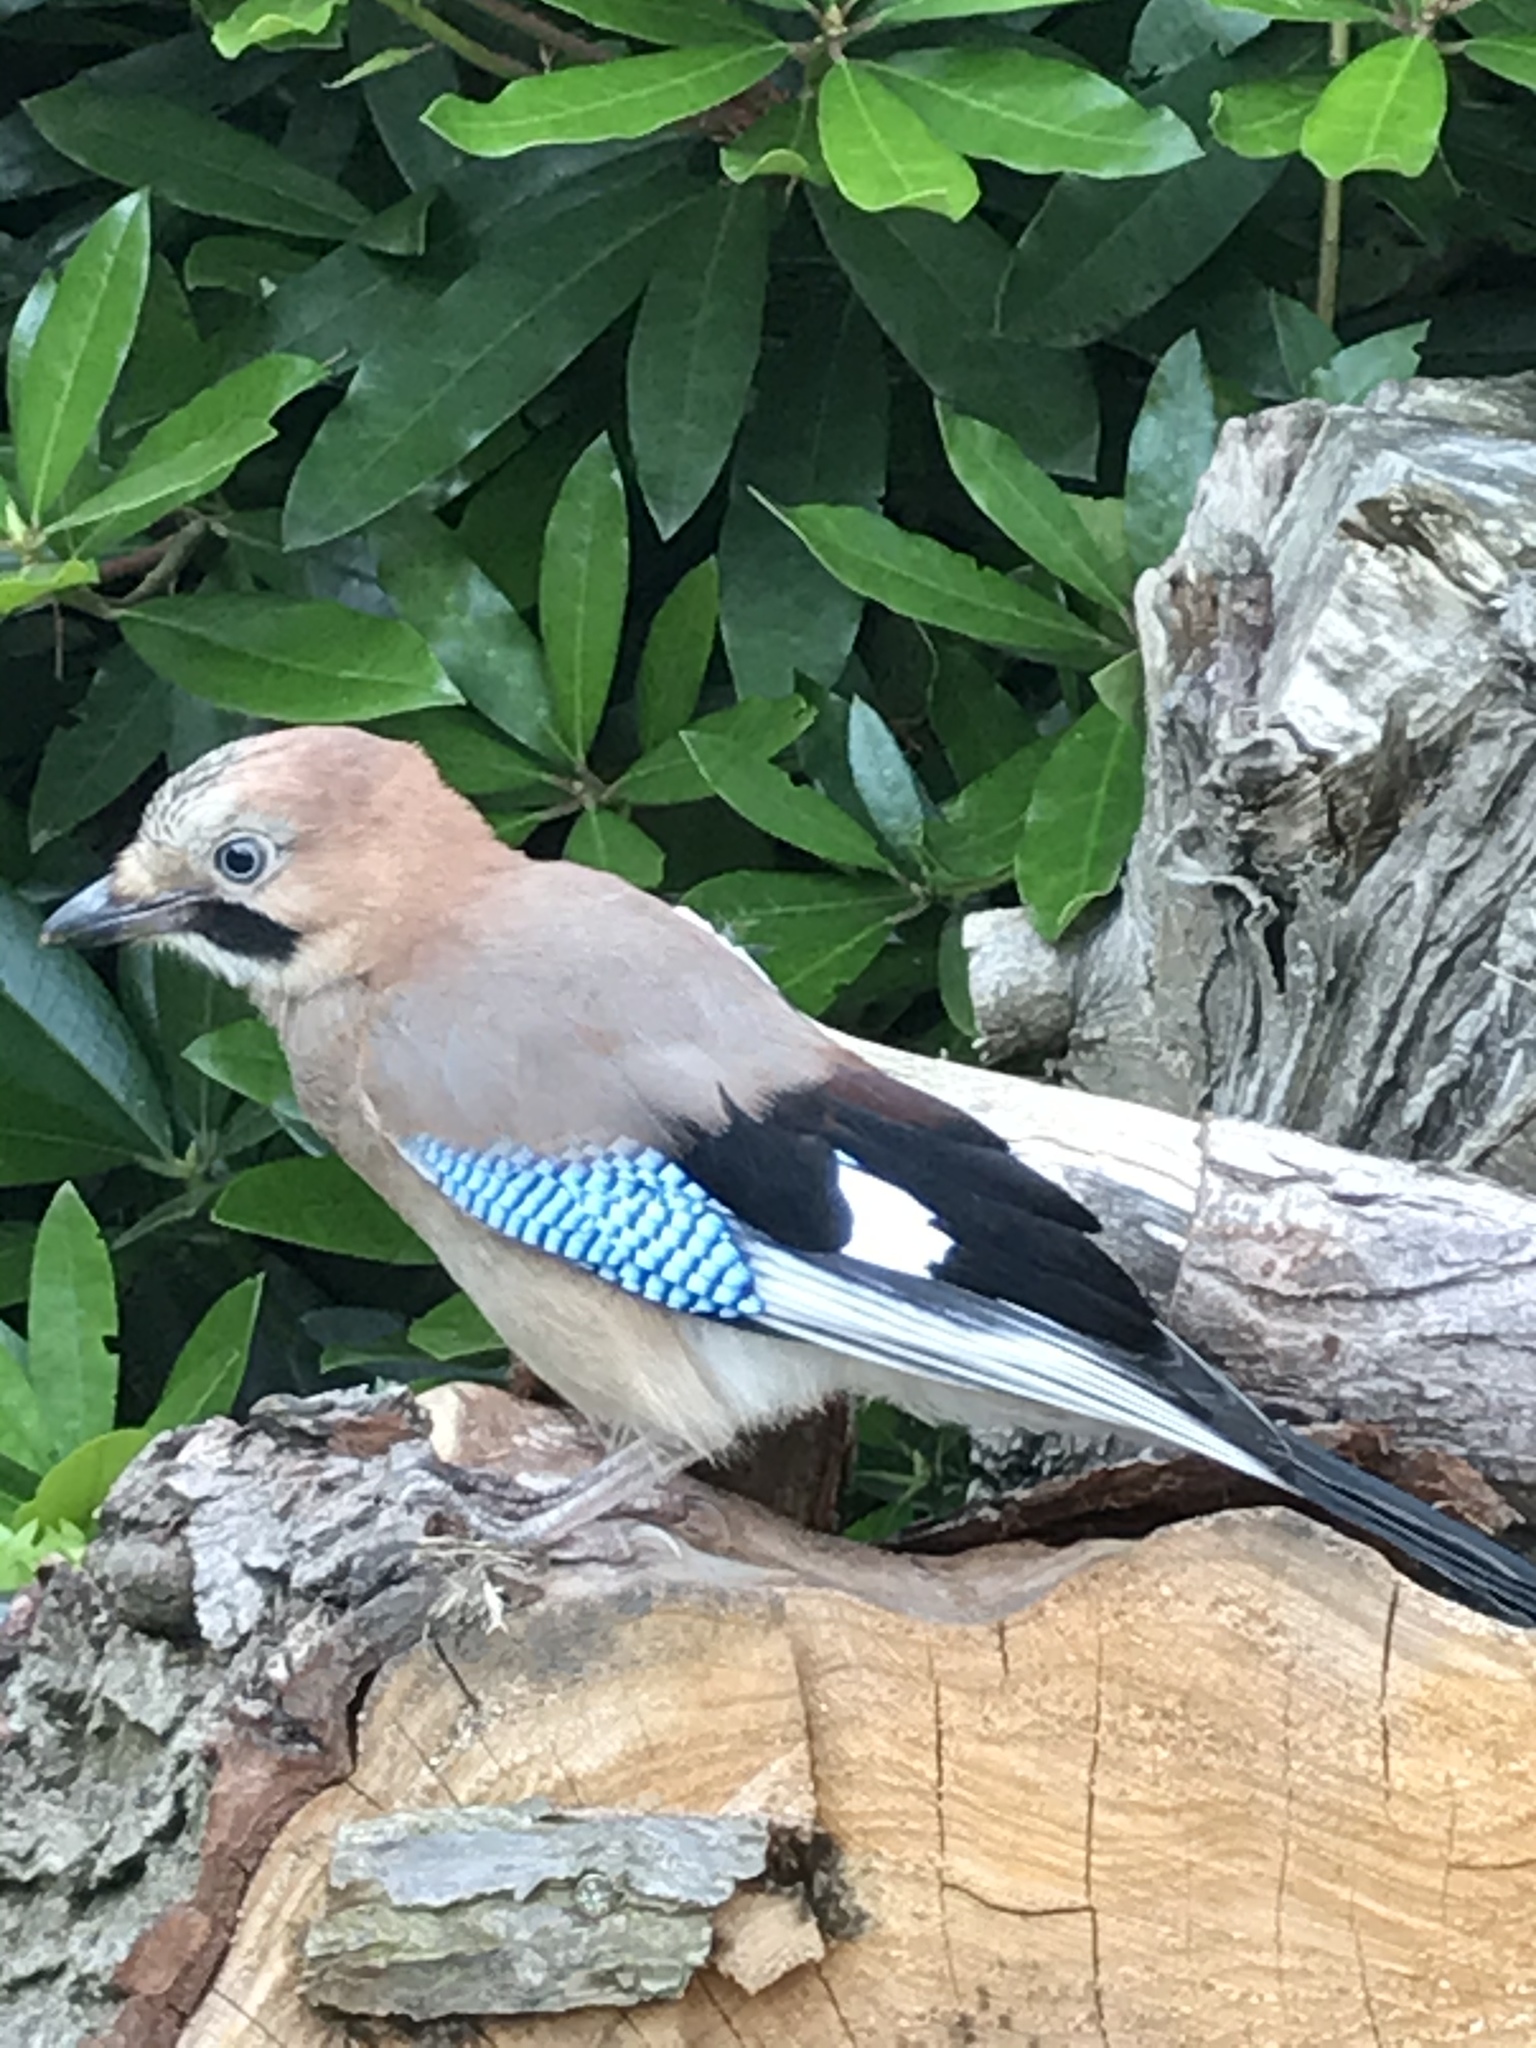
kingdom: Animalia
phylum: Chordata
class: Aves
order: Passeriformes
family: Corvidae
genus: Garrulus
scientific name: Garrulus glandarius
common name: Eurasian jay
